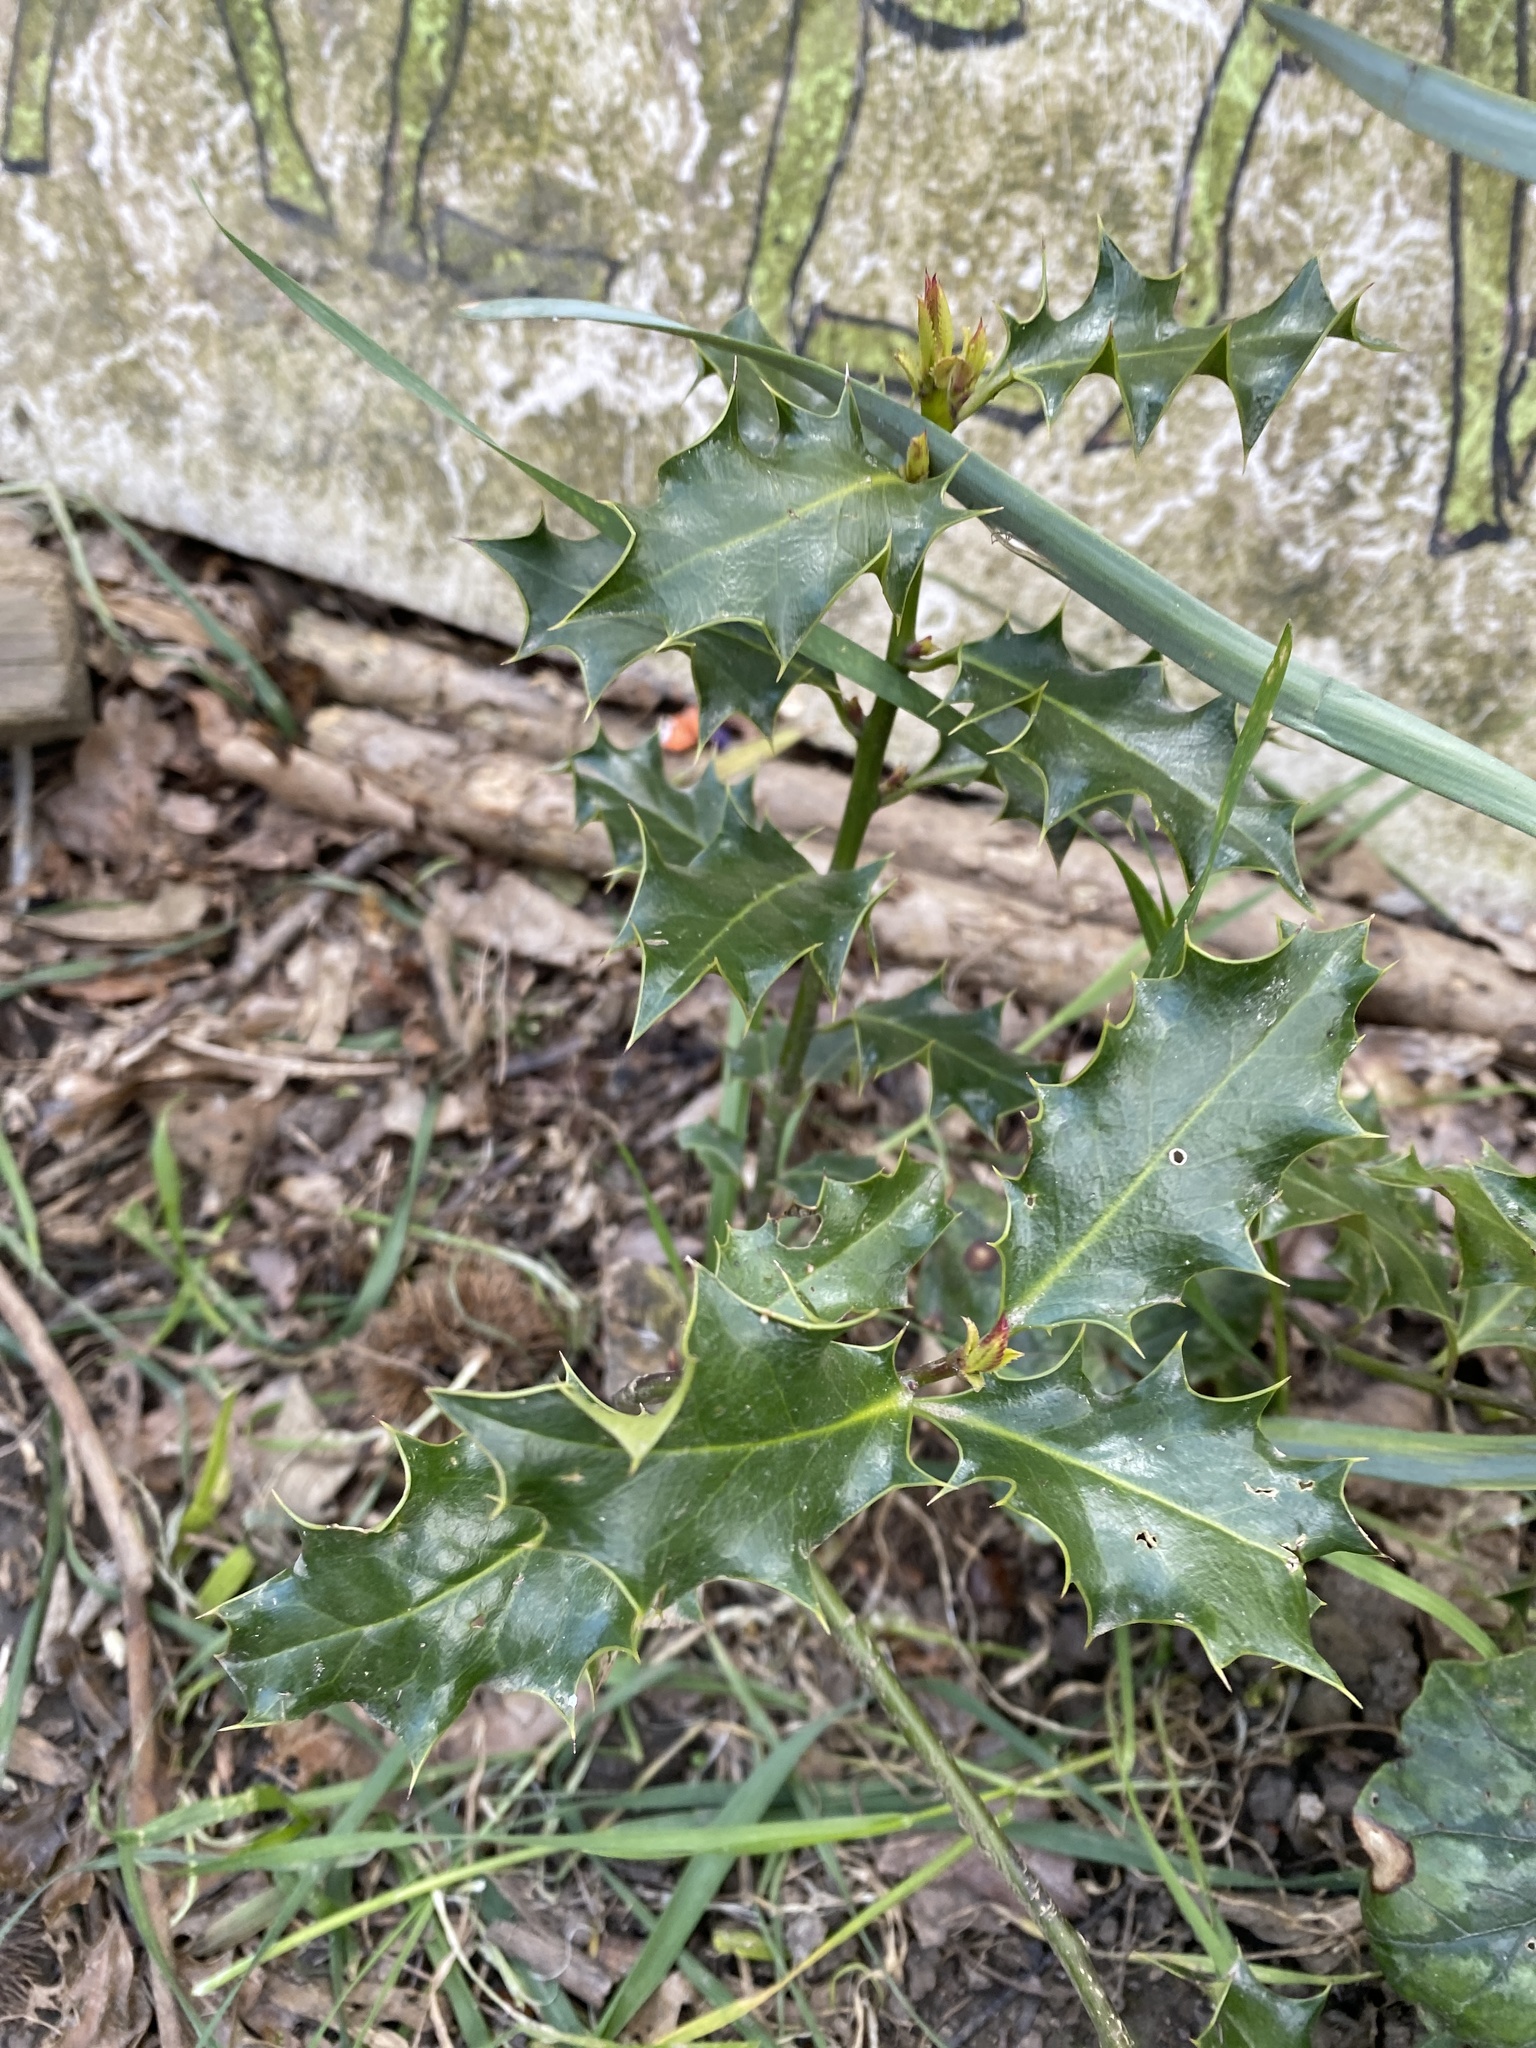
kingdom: Plantae
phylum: Tracheophyta
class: Magnoliopsida
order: Aquifoliales
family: Aquifoliaceae
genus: Ilex
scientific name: Ilex aquifolium
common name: English holly
